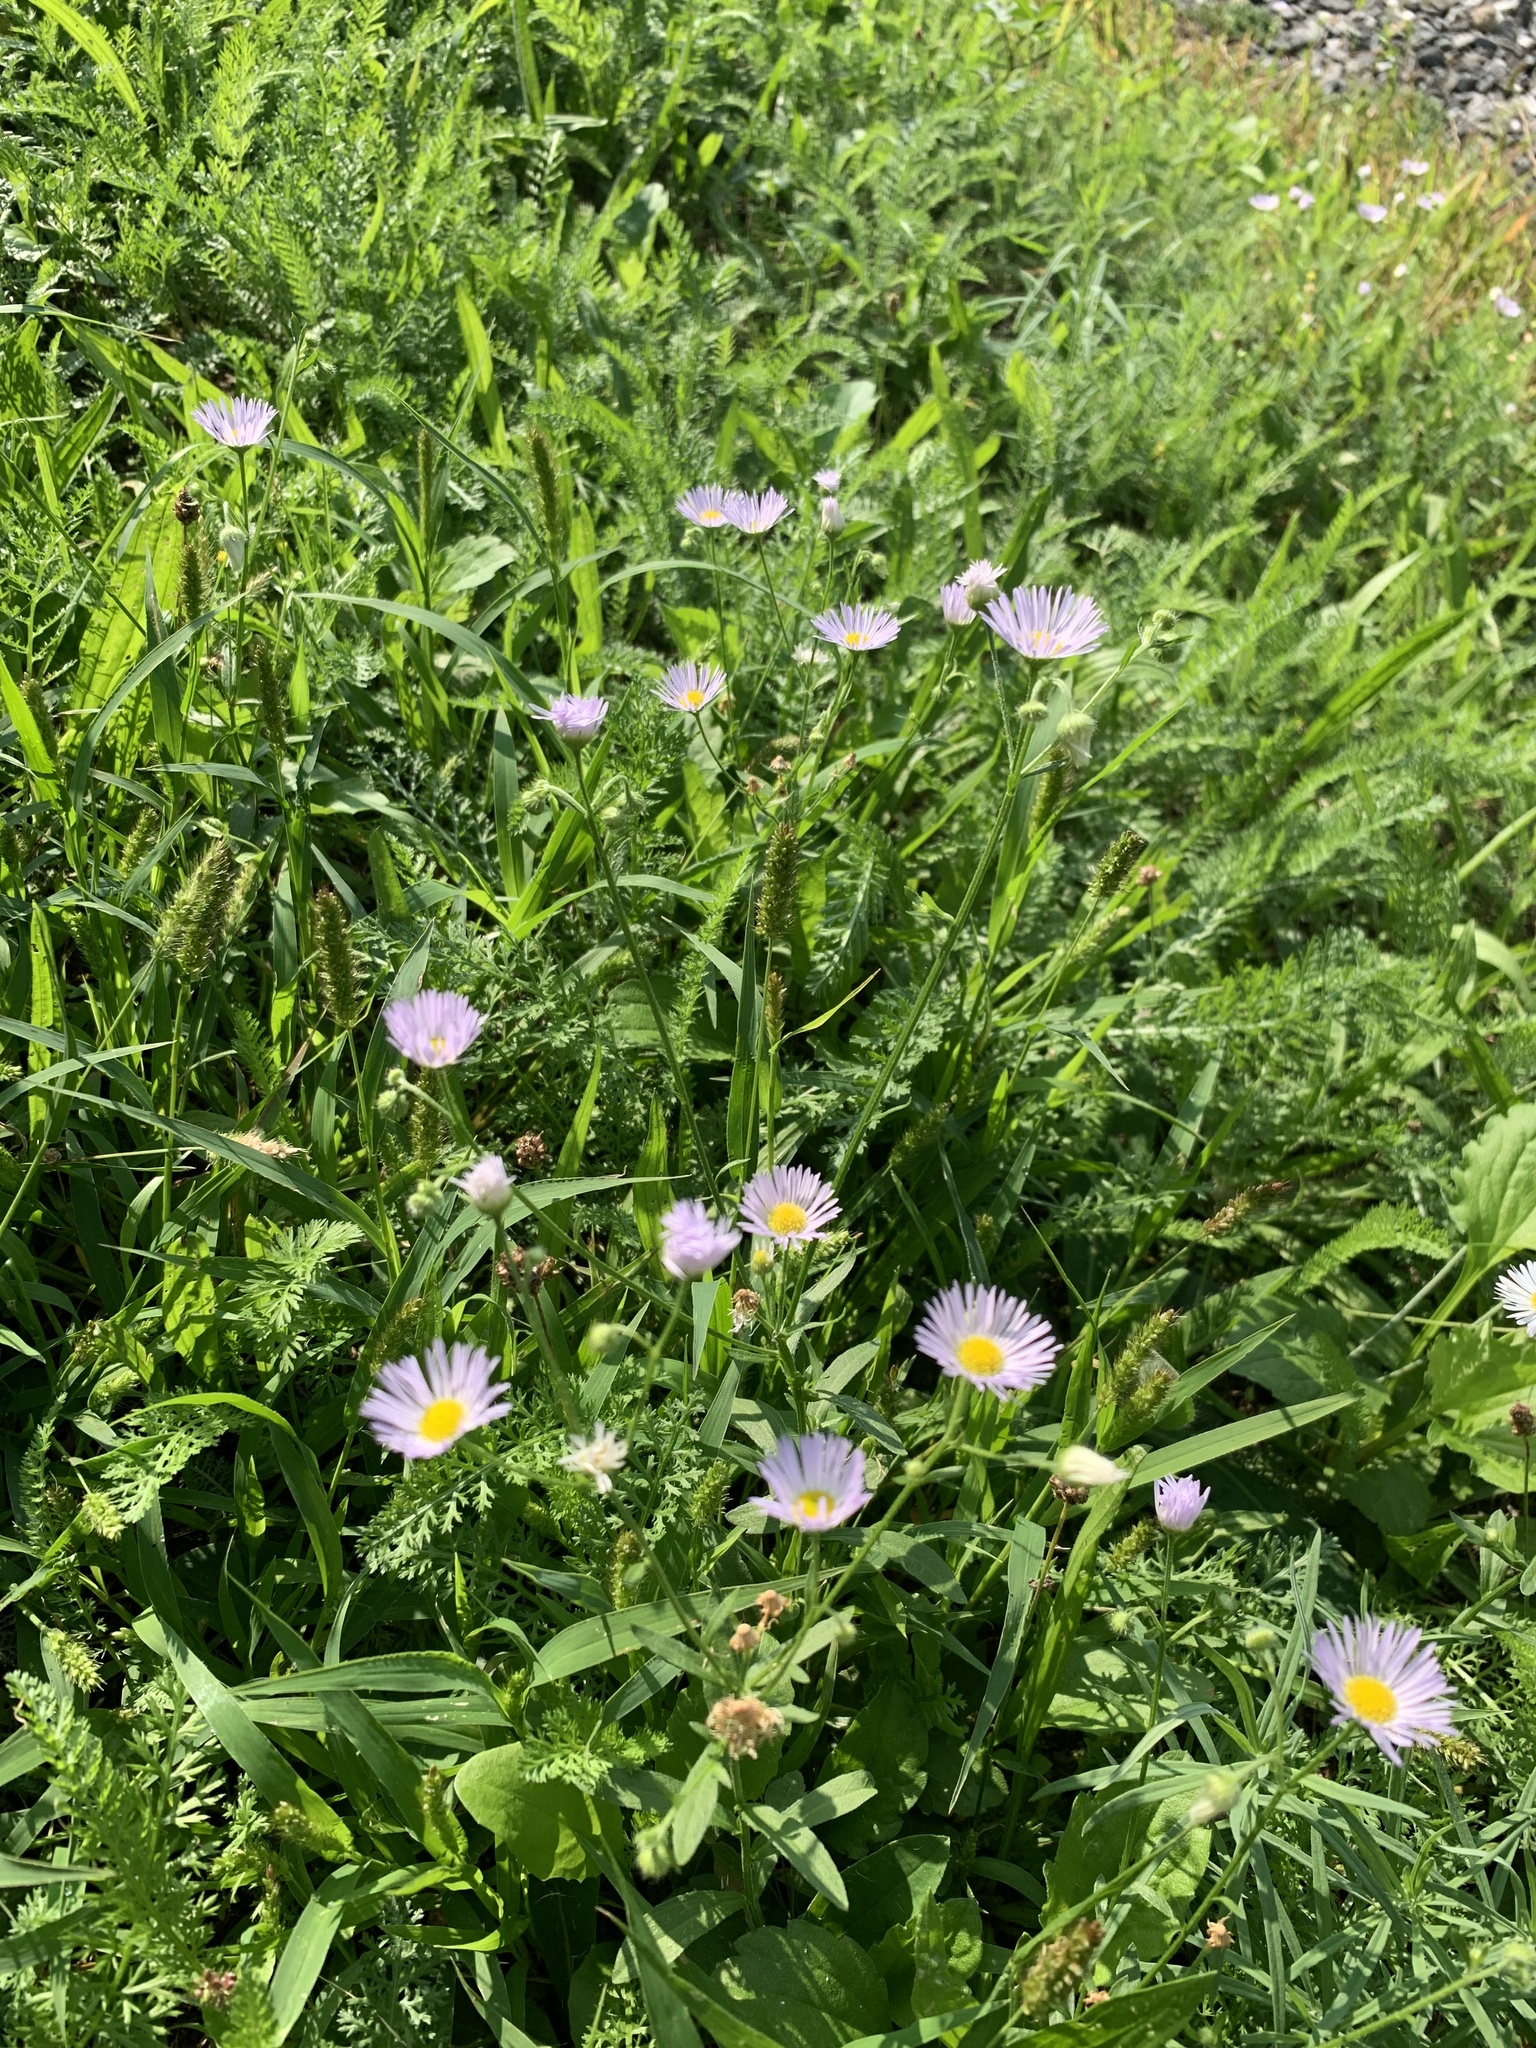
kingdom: Plantae
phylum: Tracheophyta
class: Magnoliopsida
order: Asterales
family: Asteraceae
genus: Erigeron
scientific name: Erigeron annuus
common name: Tall fleabane
